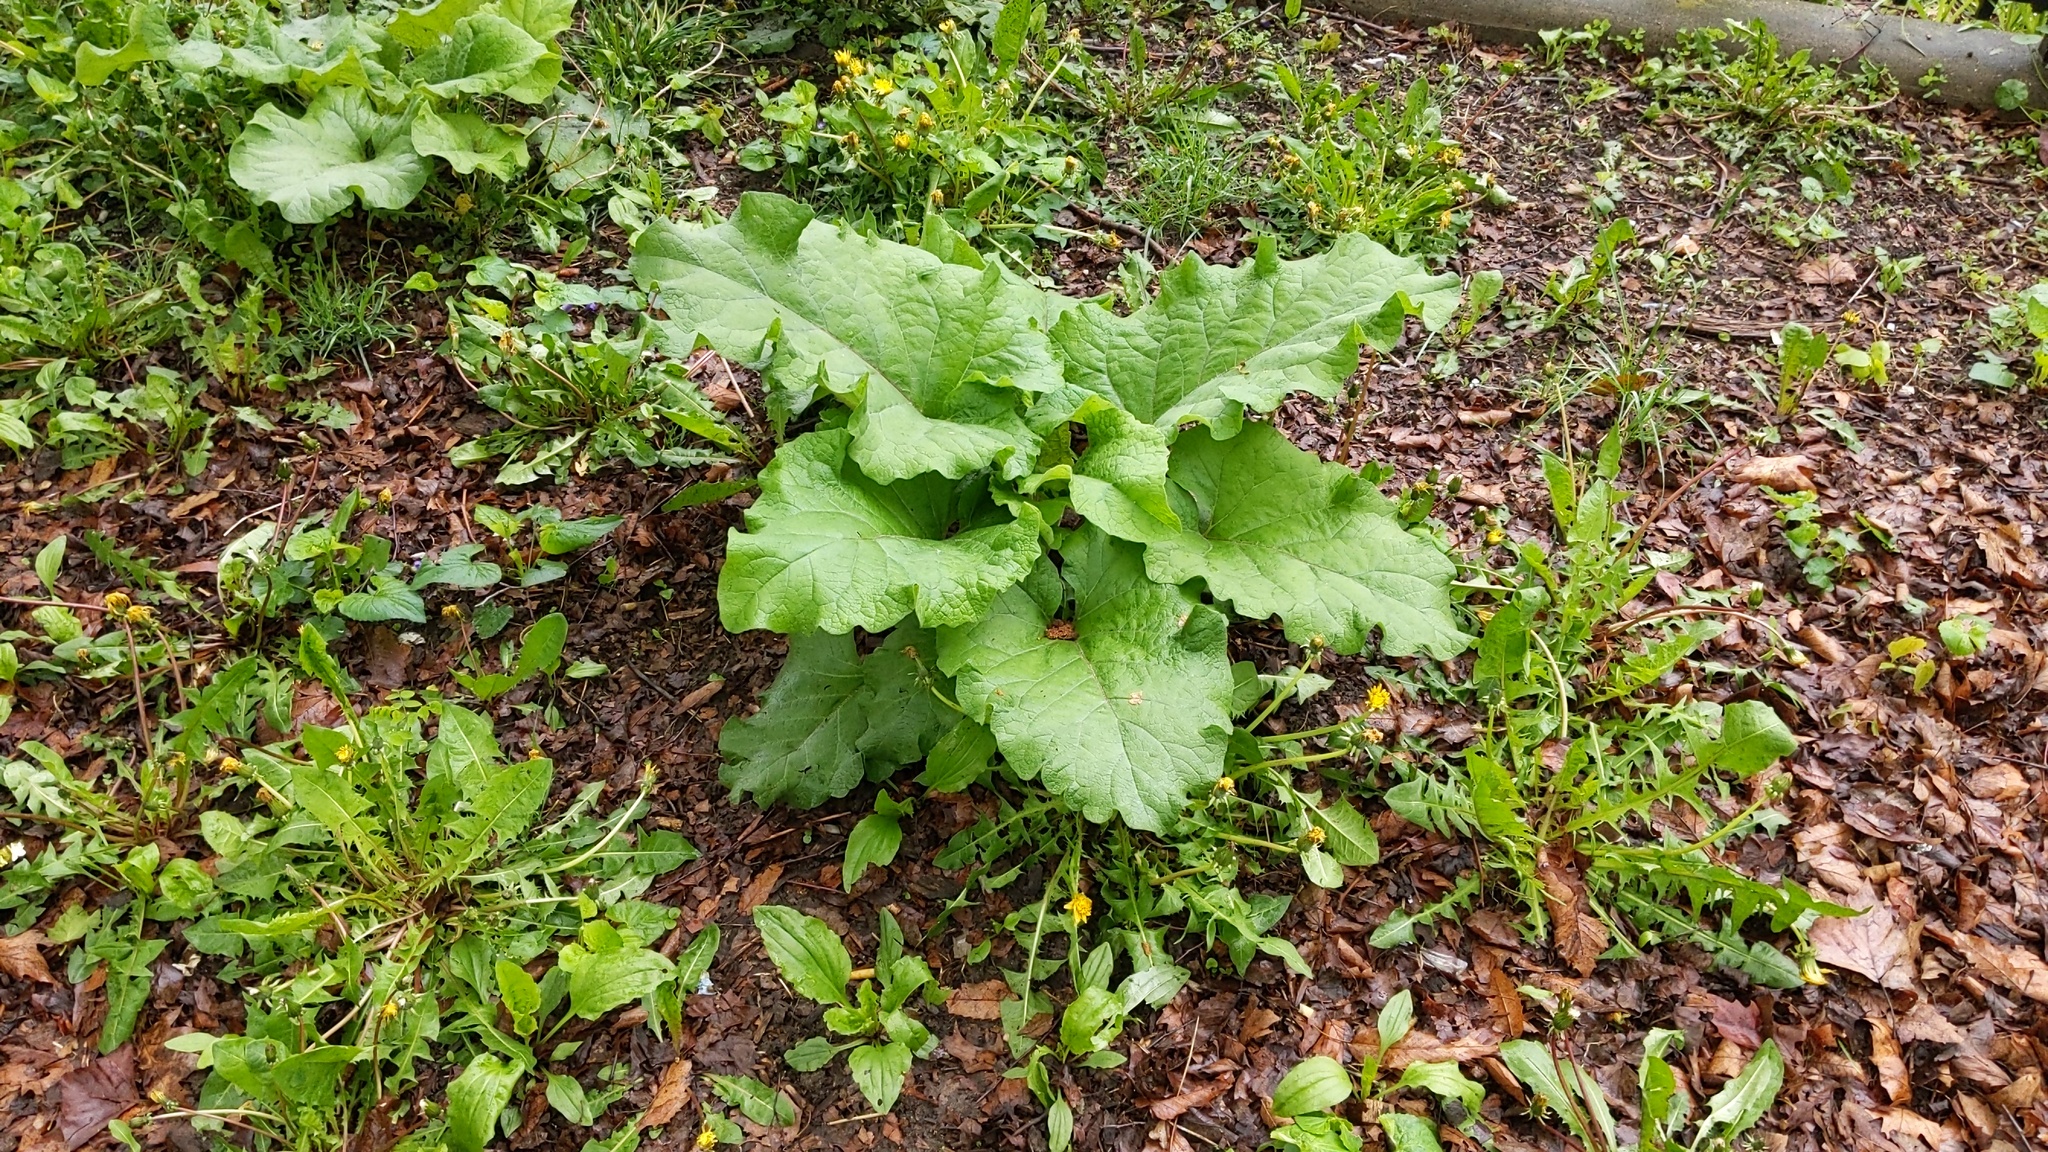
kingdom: Plantae
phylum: Tracheophyta
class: Magnoliopsida
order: Asterales
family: Asteraceae
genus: Arctium
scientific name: Arctium
